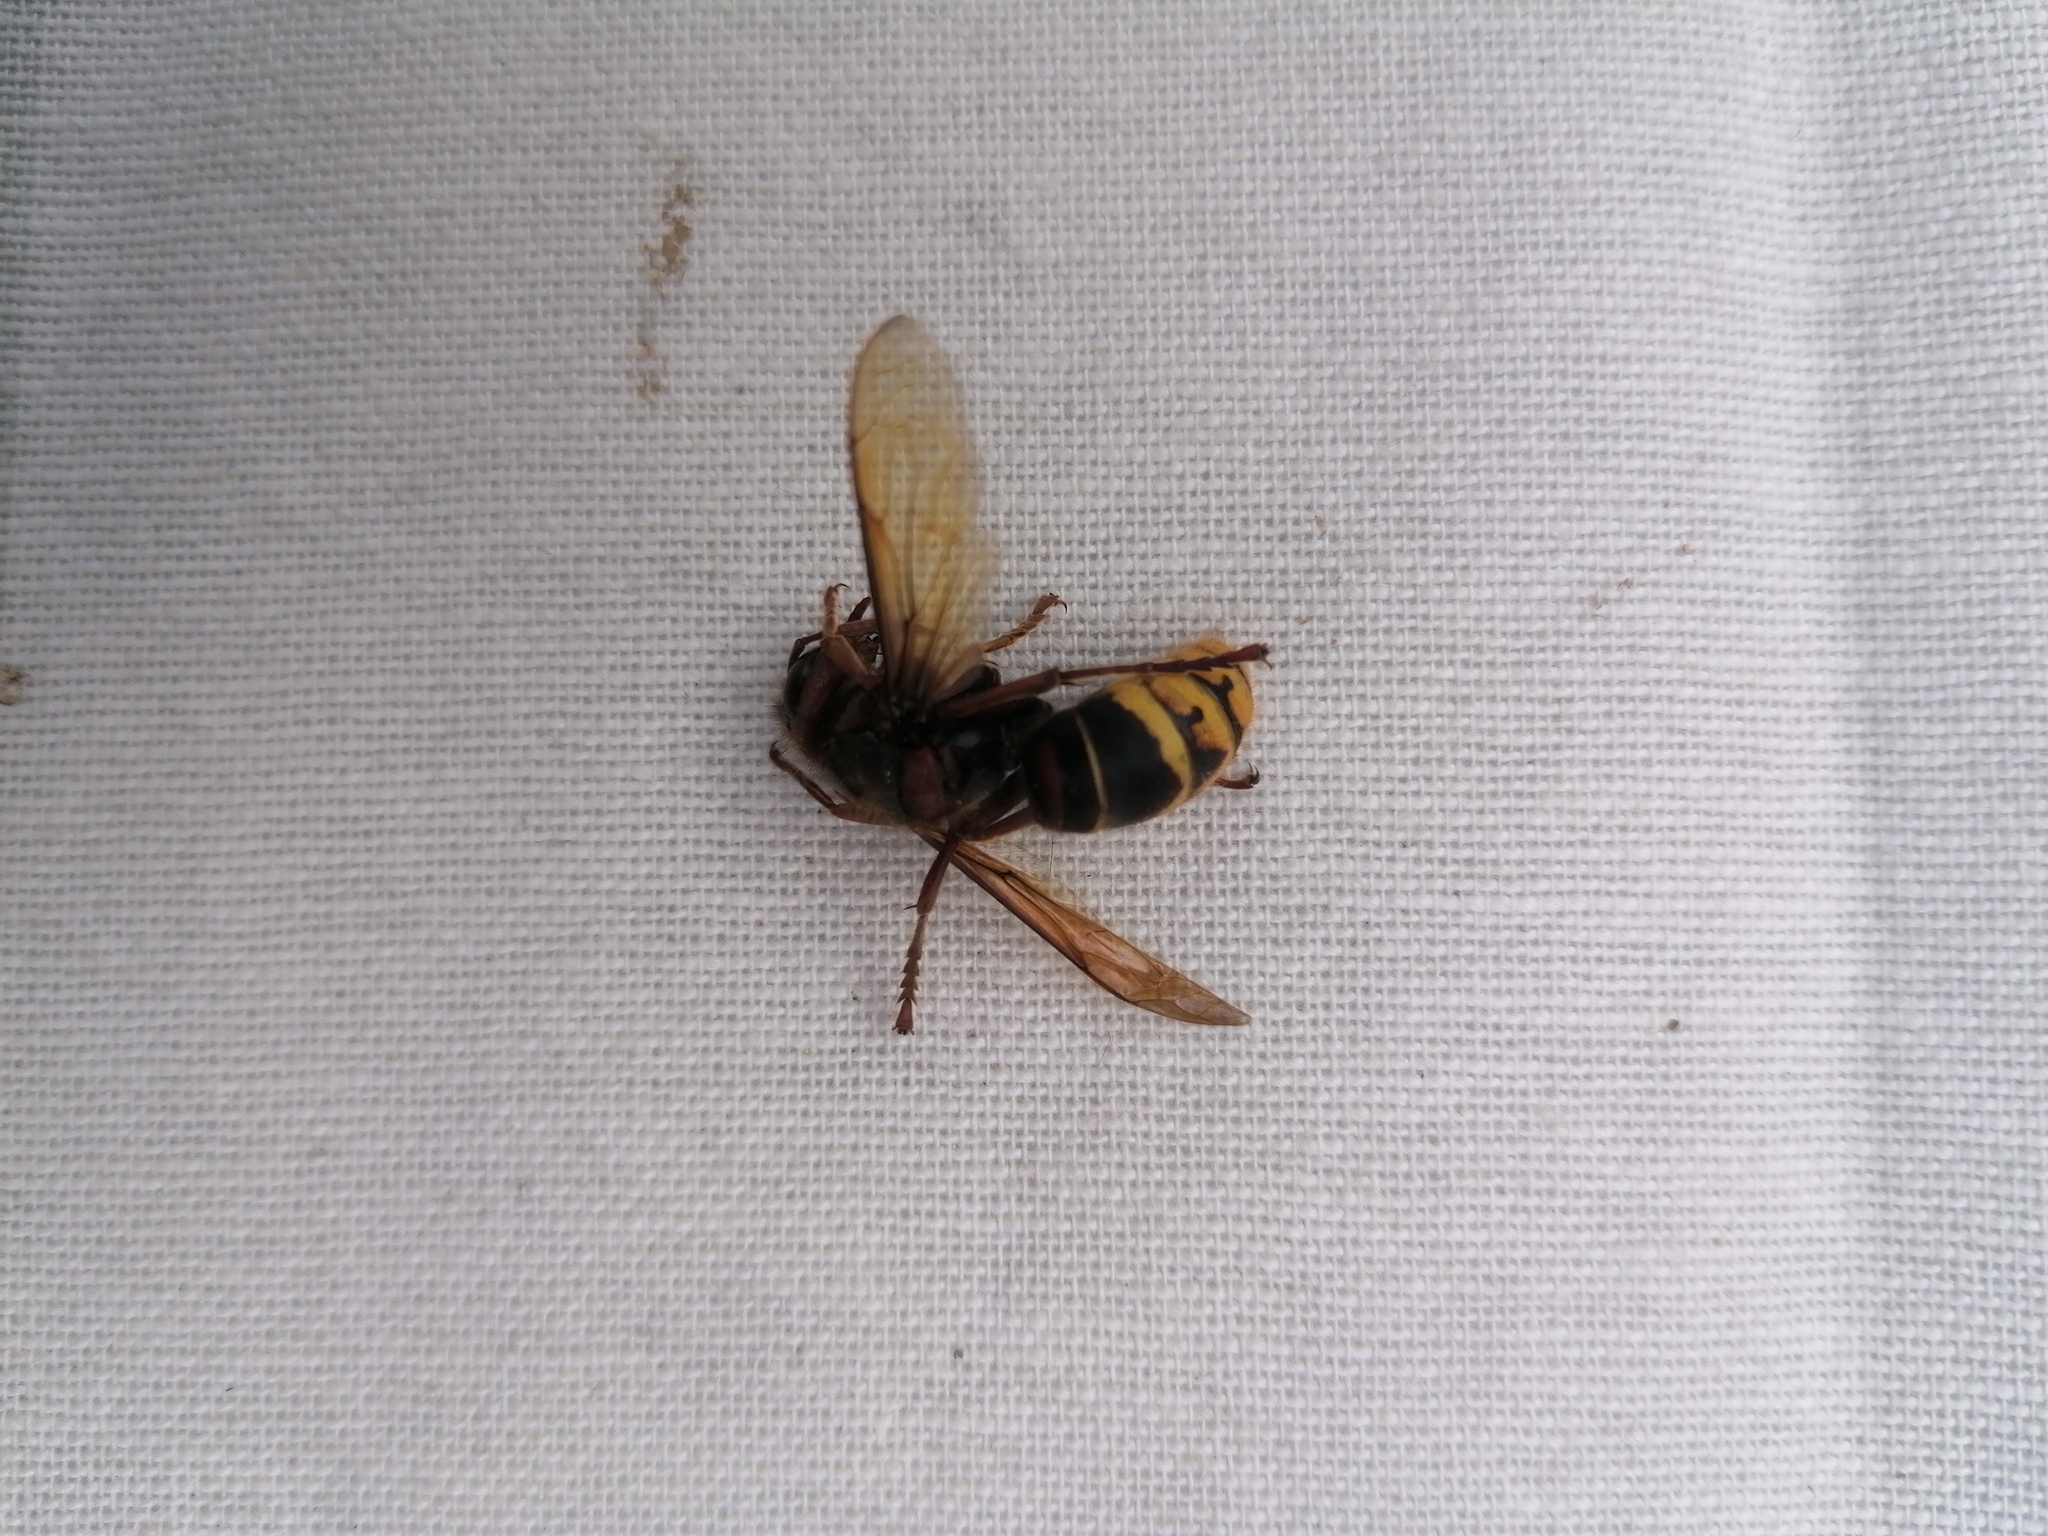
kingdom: Animalia
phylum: Arthropoda
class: Insecta
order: Hymenoptera
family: Vespidae
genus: Vespa
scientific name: Vespa crabro
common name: Hornet
